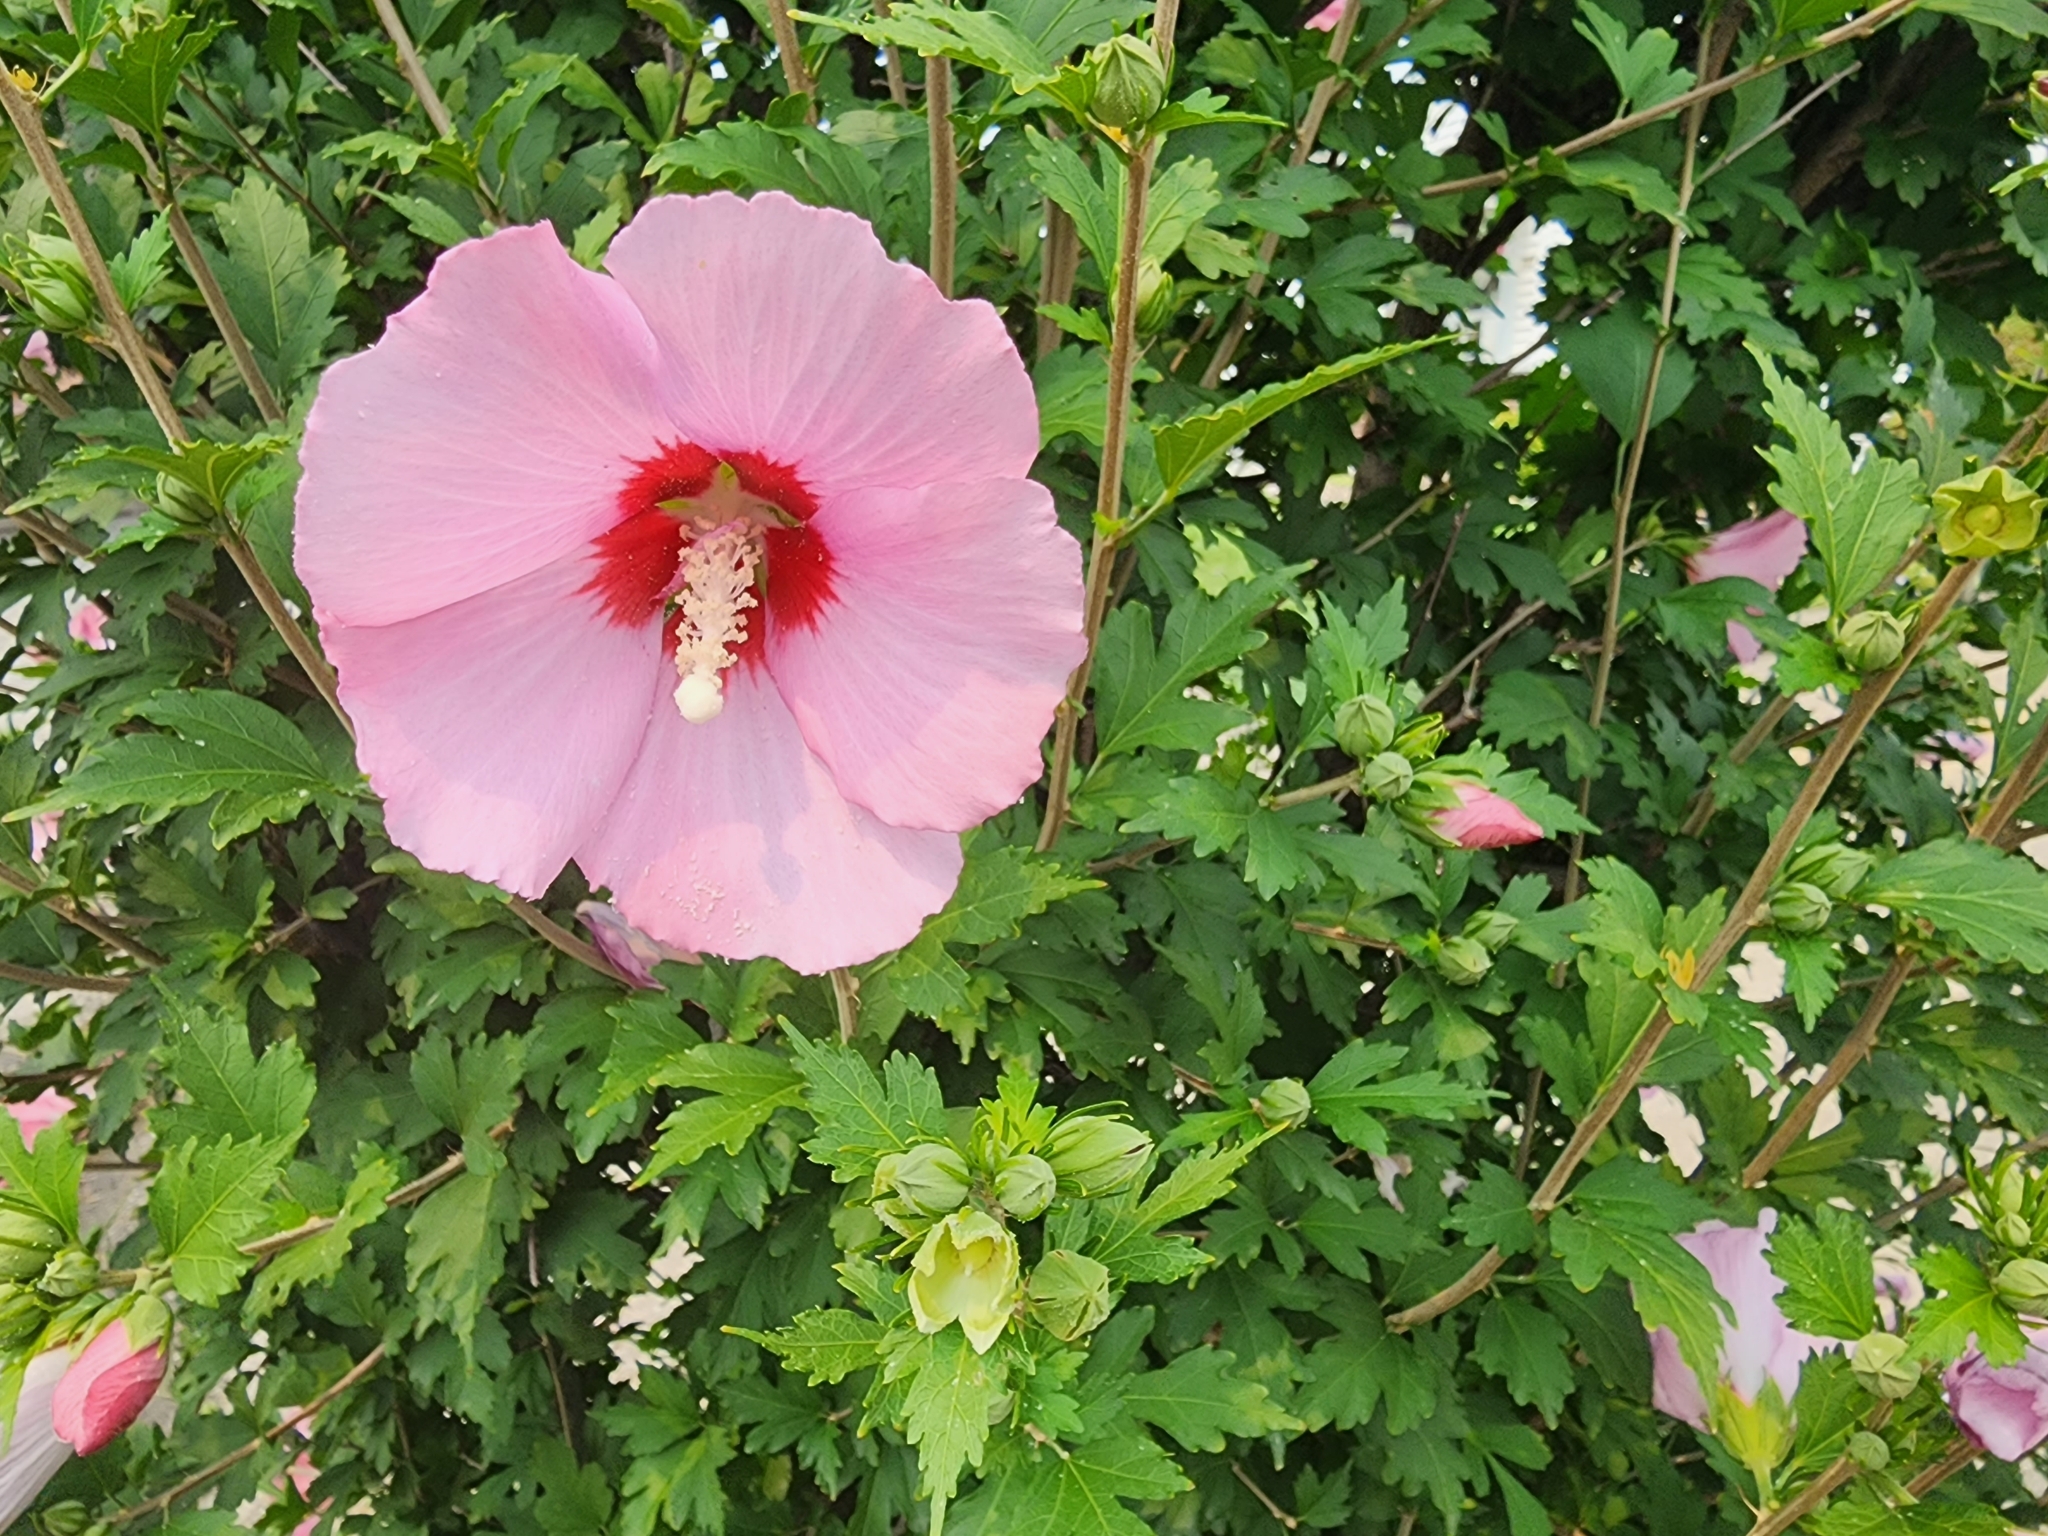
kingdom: Plantae
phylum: Tracheophyta
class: Magnoliopsida
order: Malvales
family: Malvaceae
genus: Hibiscus
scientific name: Hibiscus syriacus
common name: Syrian ketmia
